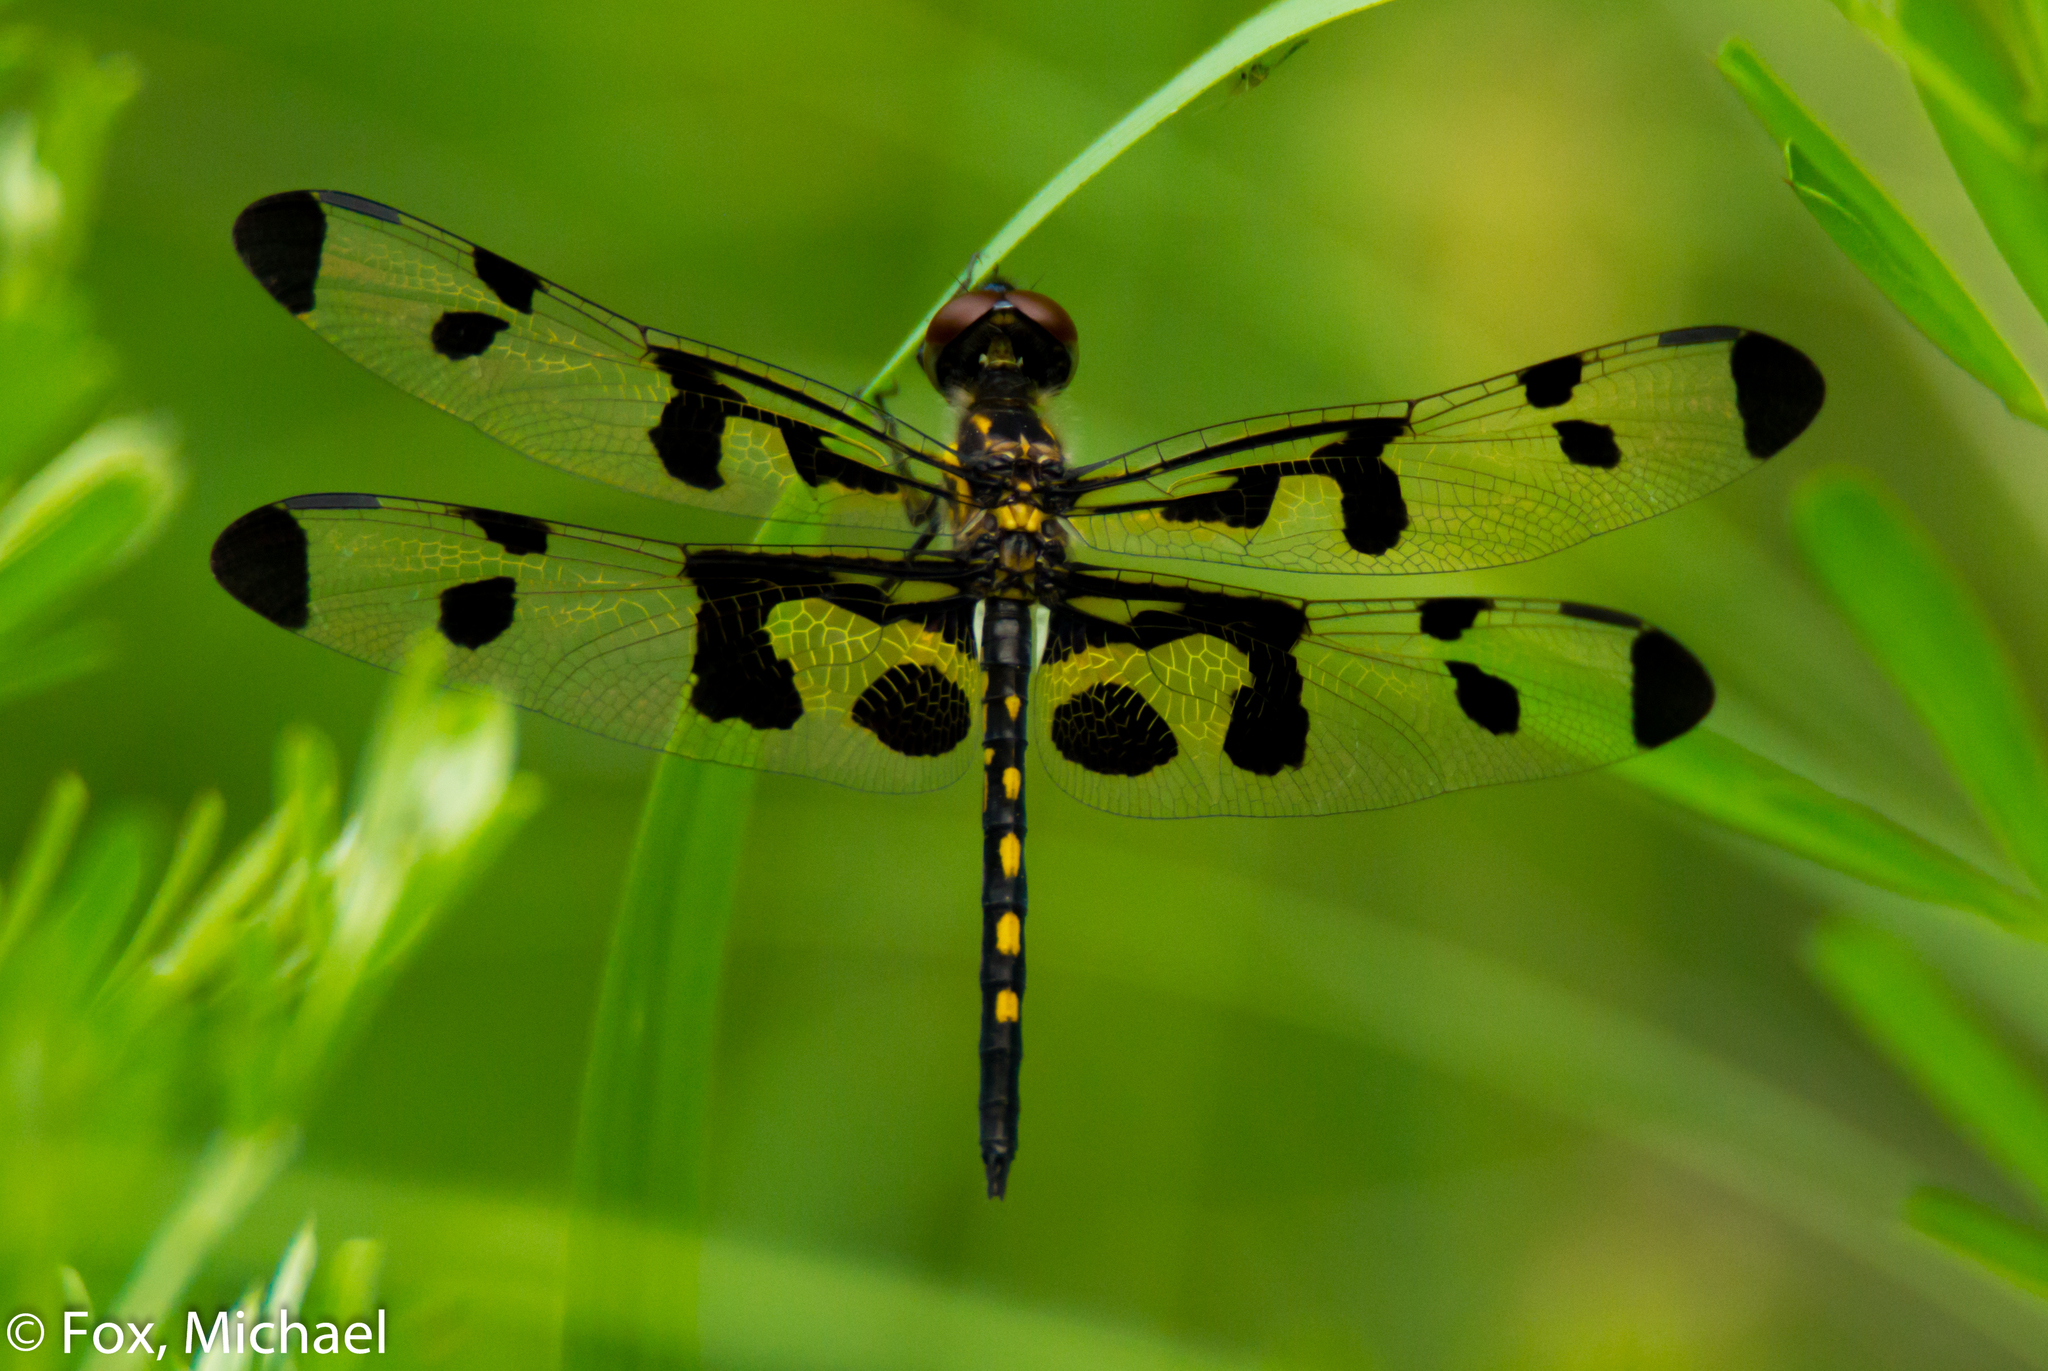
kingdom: Animalia
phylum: Arthropoda
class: Insecta
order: Odonata
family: Libellulidae
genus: Celithemis
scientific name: Celithemis fasciata
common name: Banded pennant
